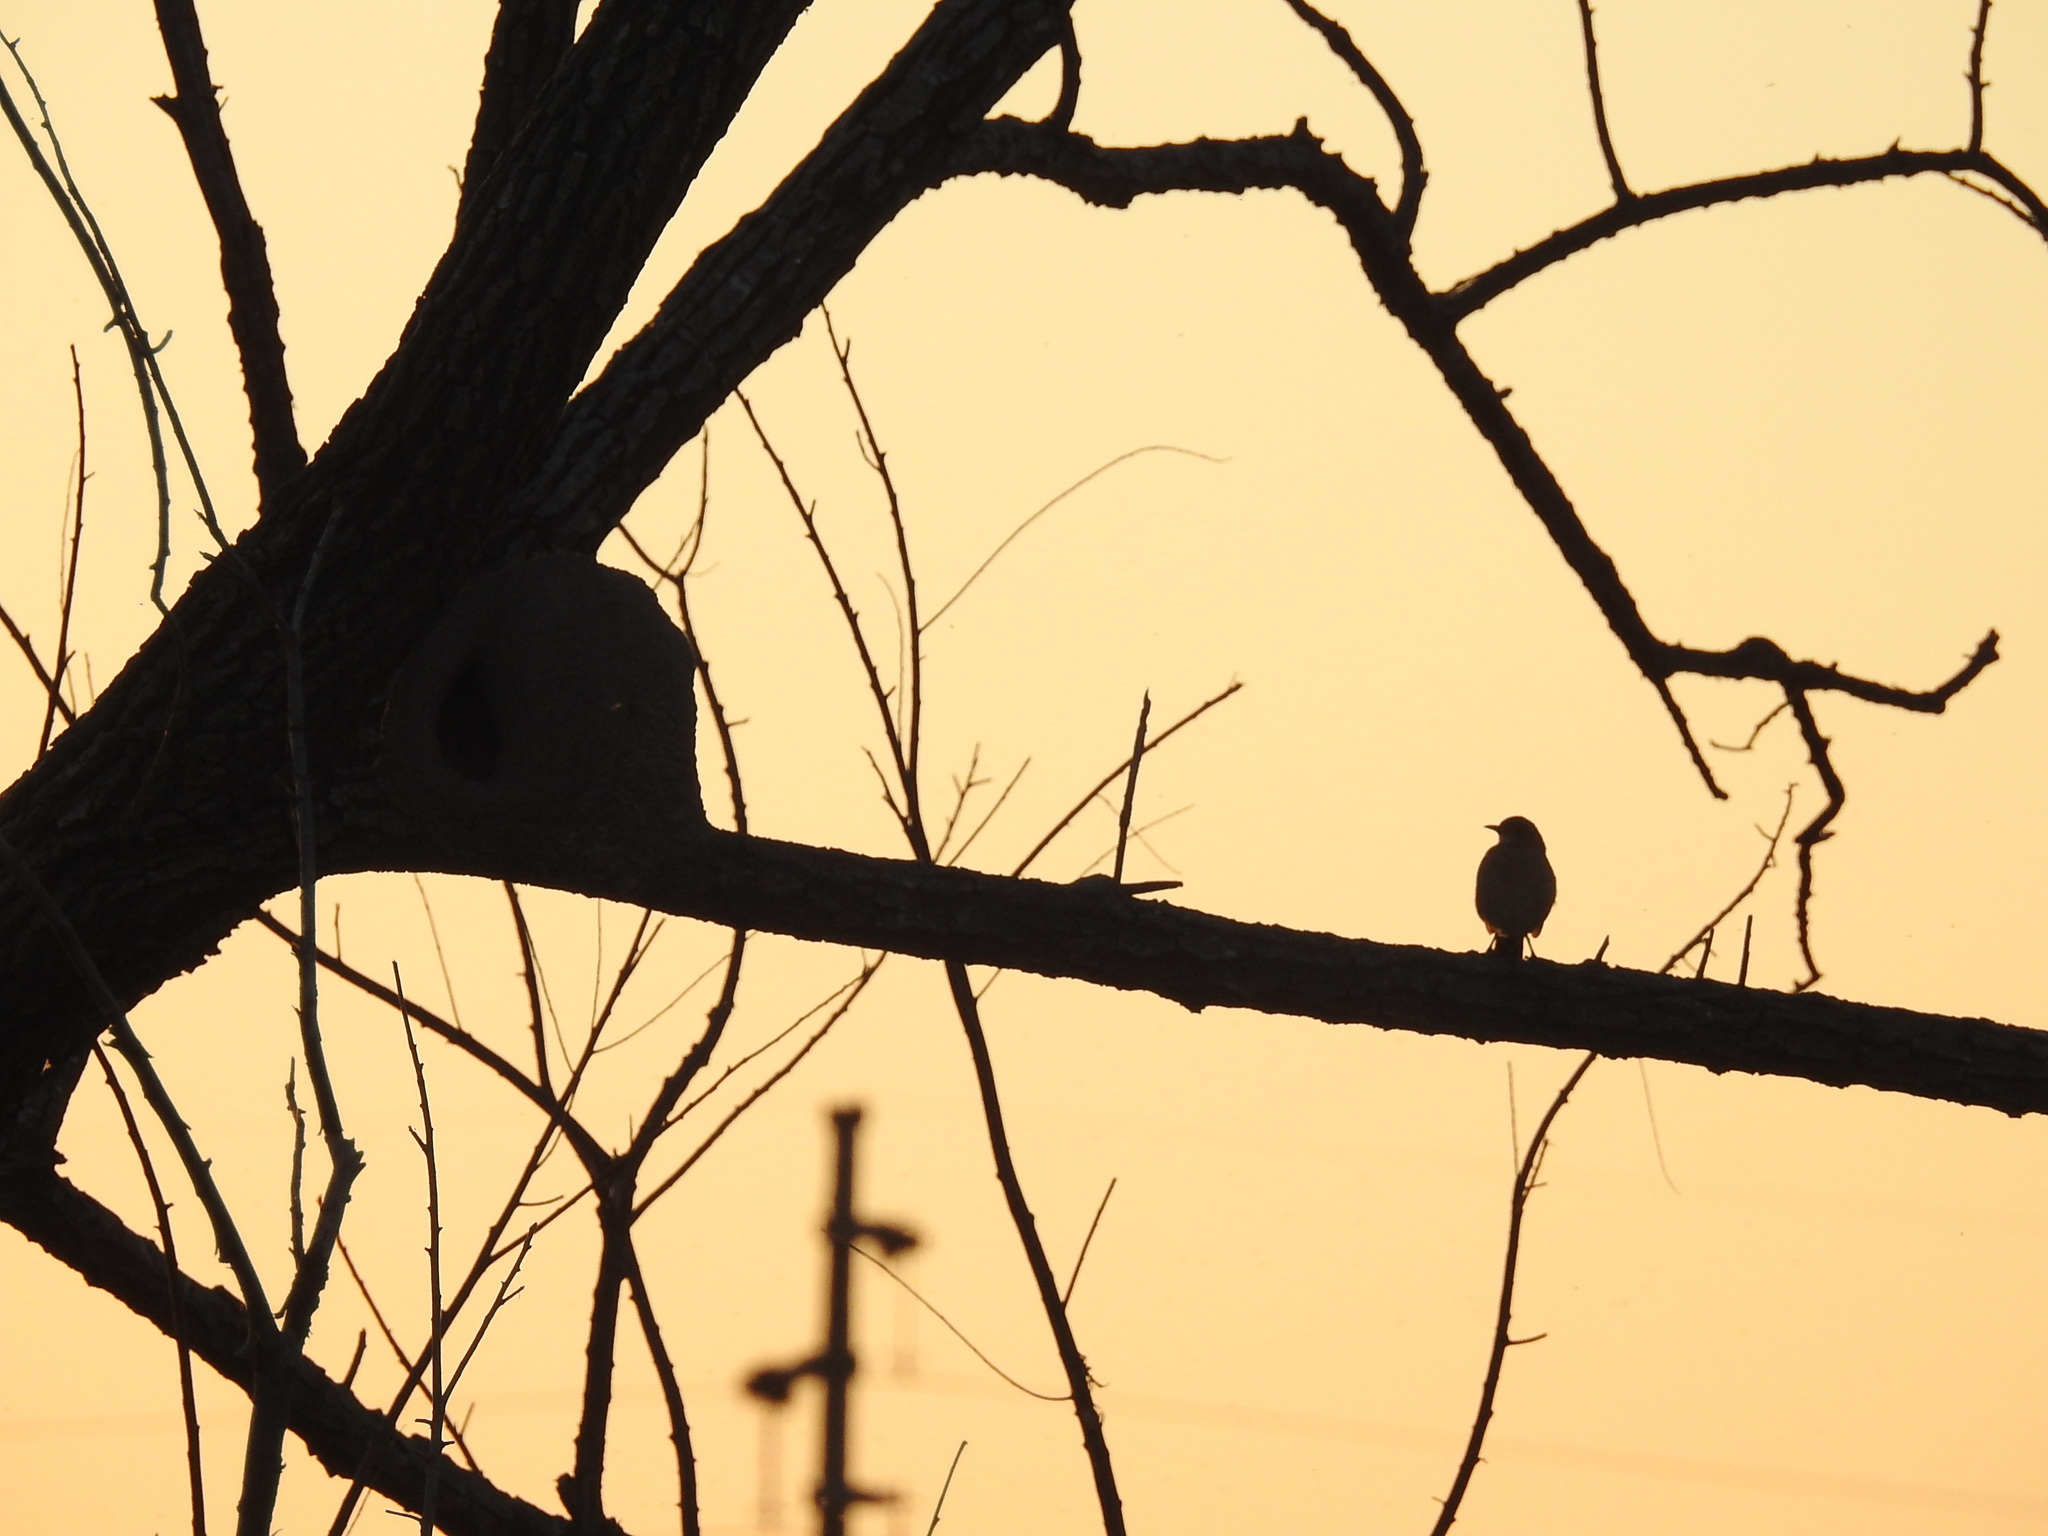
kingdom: Animalia
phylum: Chordata
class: Aves
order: Passeriformes
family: Furnariidae
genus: Furnarius
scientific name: Furnarius rufus
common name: Rufous hornero
